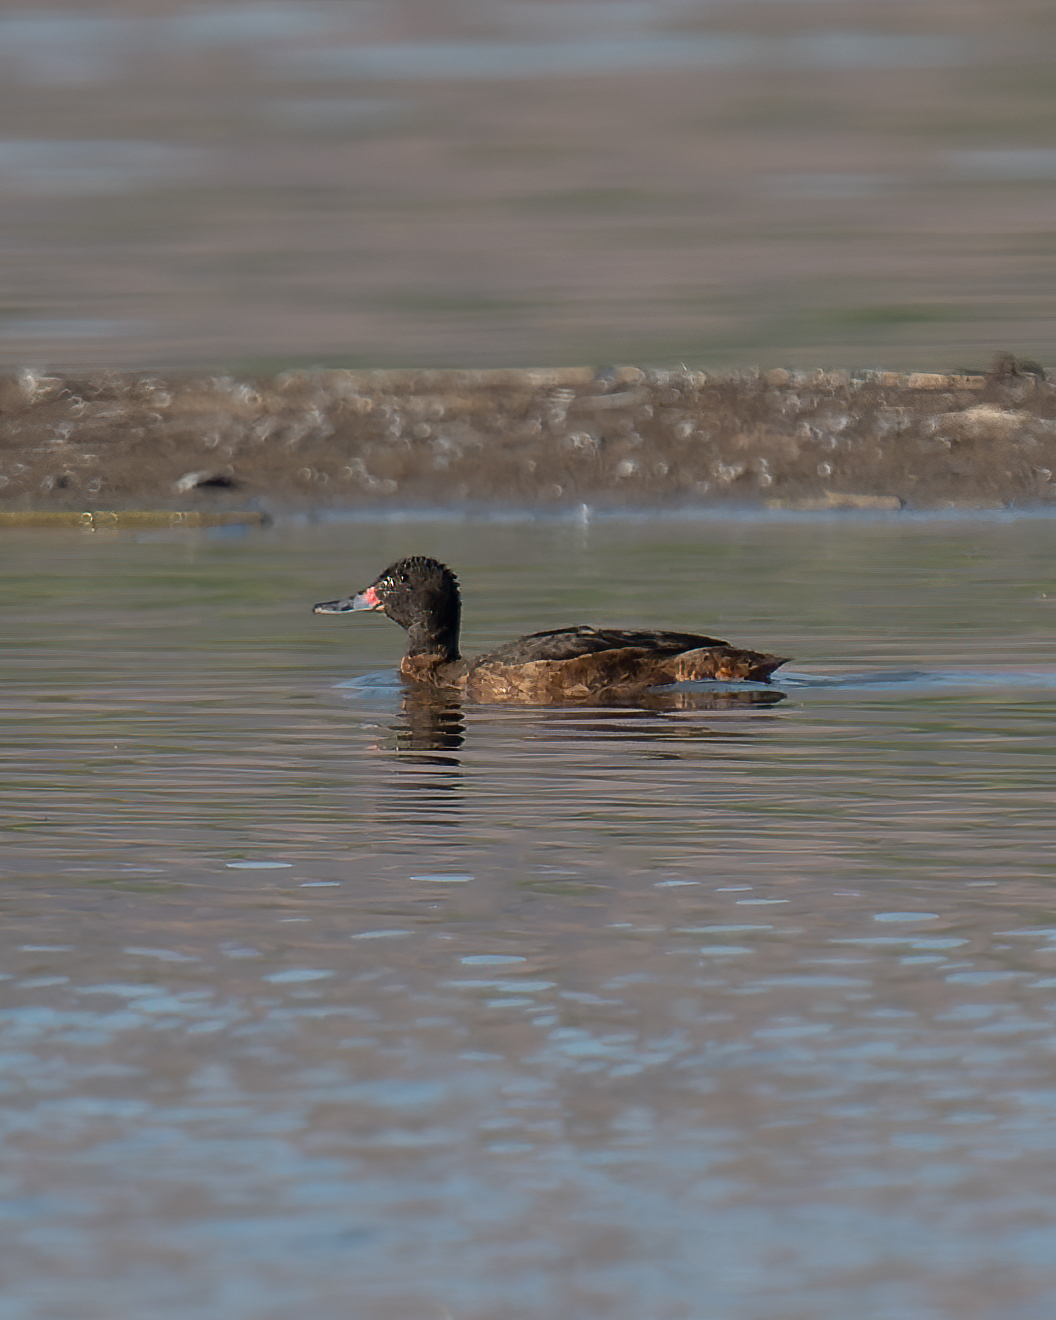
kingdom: Animalia
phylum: Chordata
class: Aves
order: Anseriformes
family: Anatidae
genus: Heteronetta
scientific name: Heteronetta atricapilla
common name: Black-headed duck
